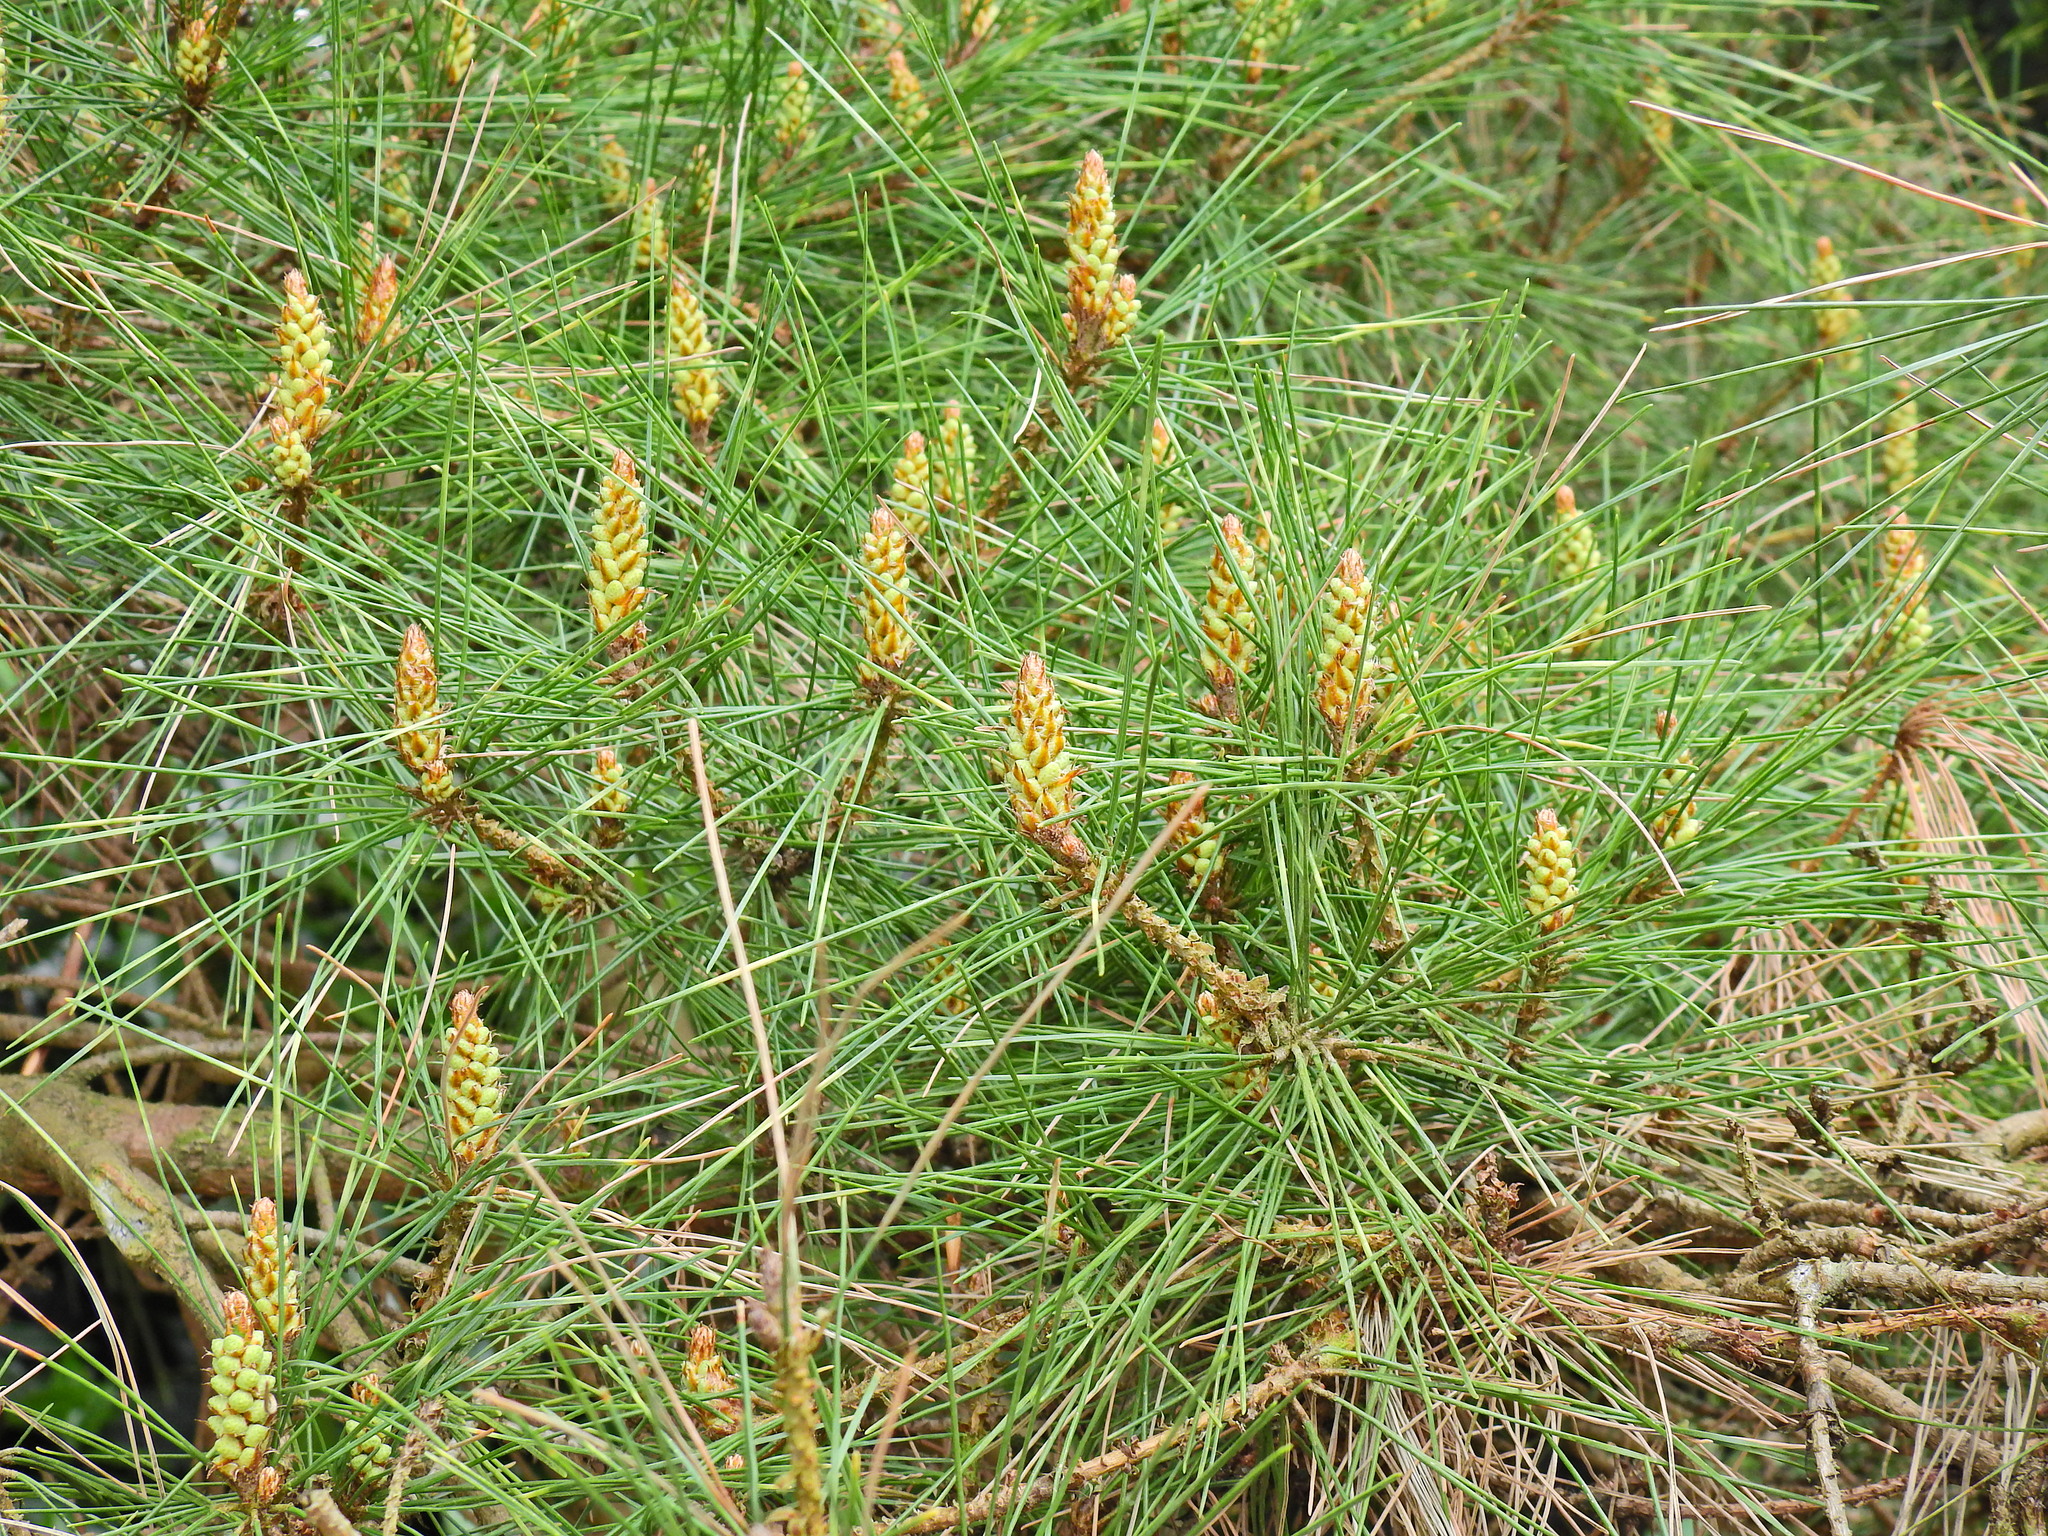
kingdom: Plantae
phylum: Tracheophyta
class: Pinopsida
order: Pinales
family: Pinaceae
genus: Pinus
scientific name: Pinus sylvestris
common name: Scots pine
